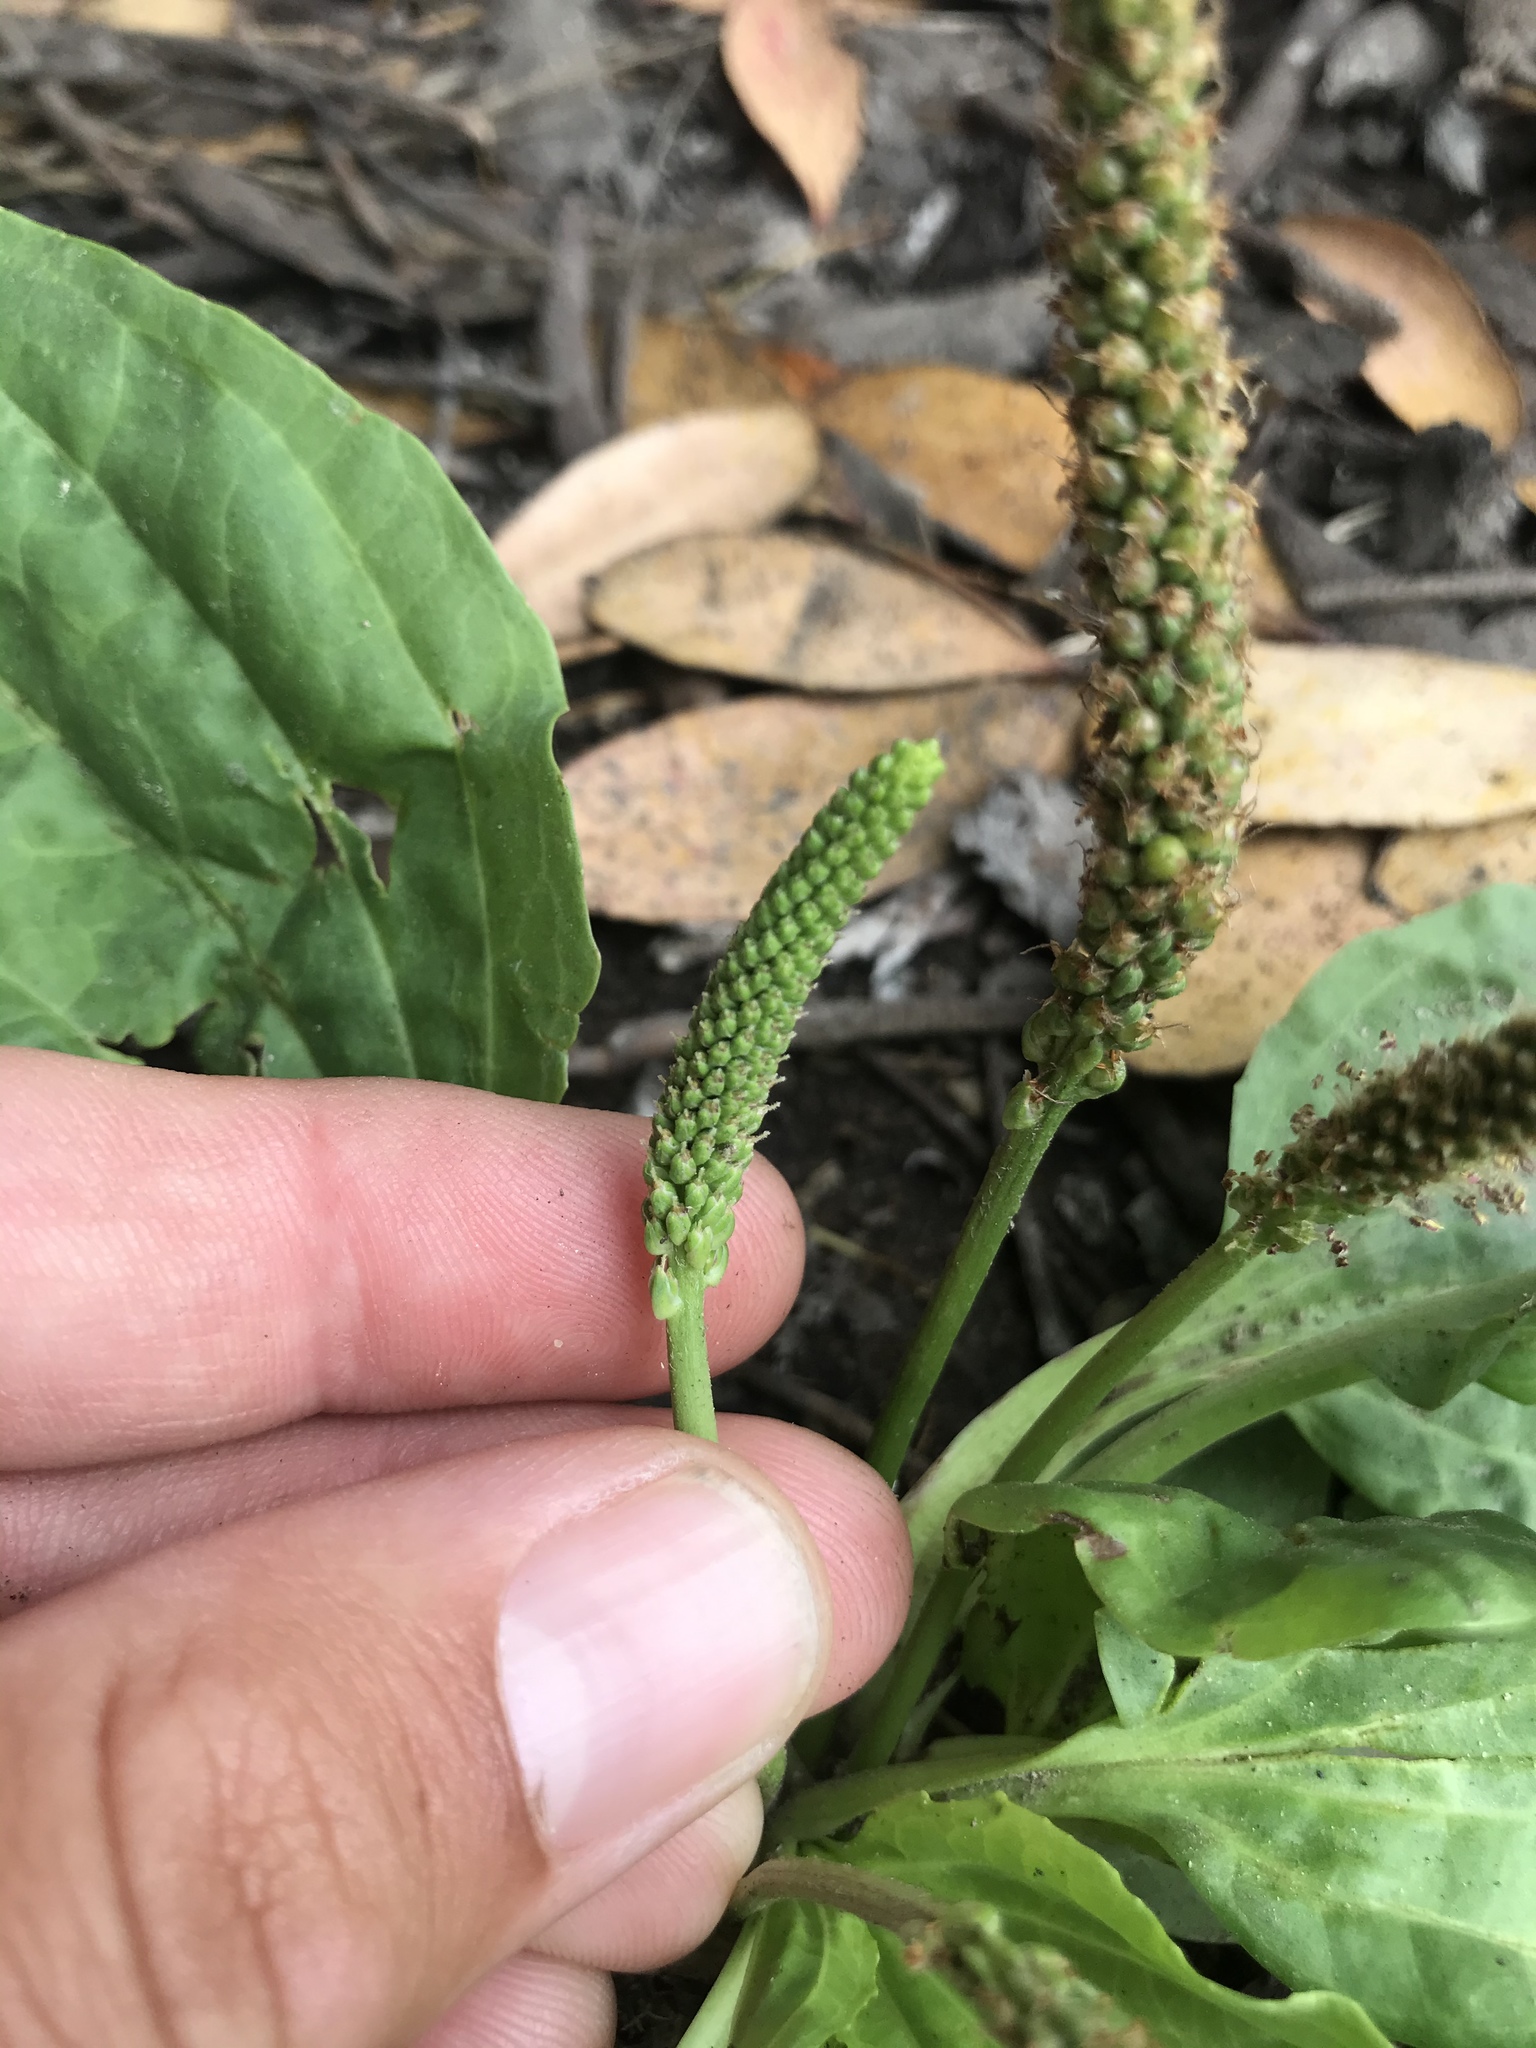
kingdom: Plantae
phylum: Tracheophyta
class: Magnoliopsida
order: Lamiales
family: Plantaginaceae
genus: Plantago
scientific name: Plantago major
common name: Common plantain
